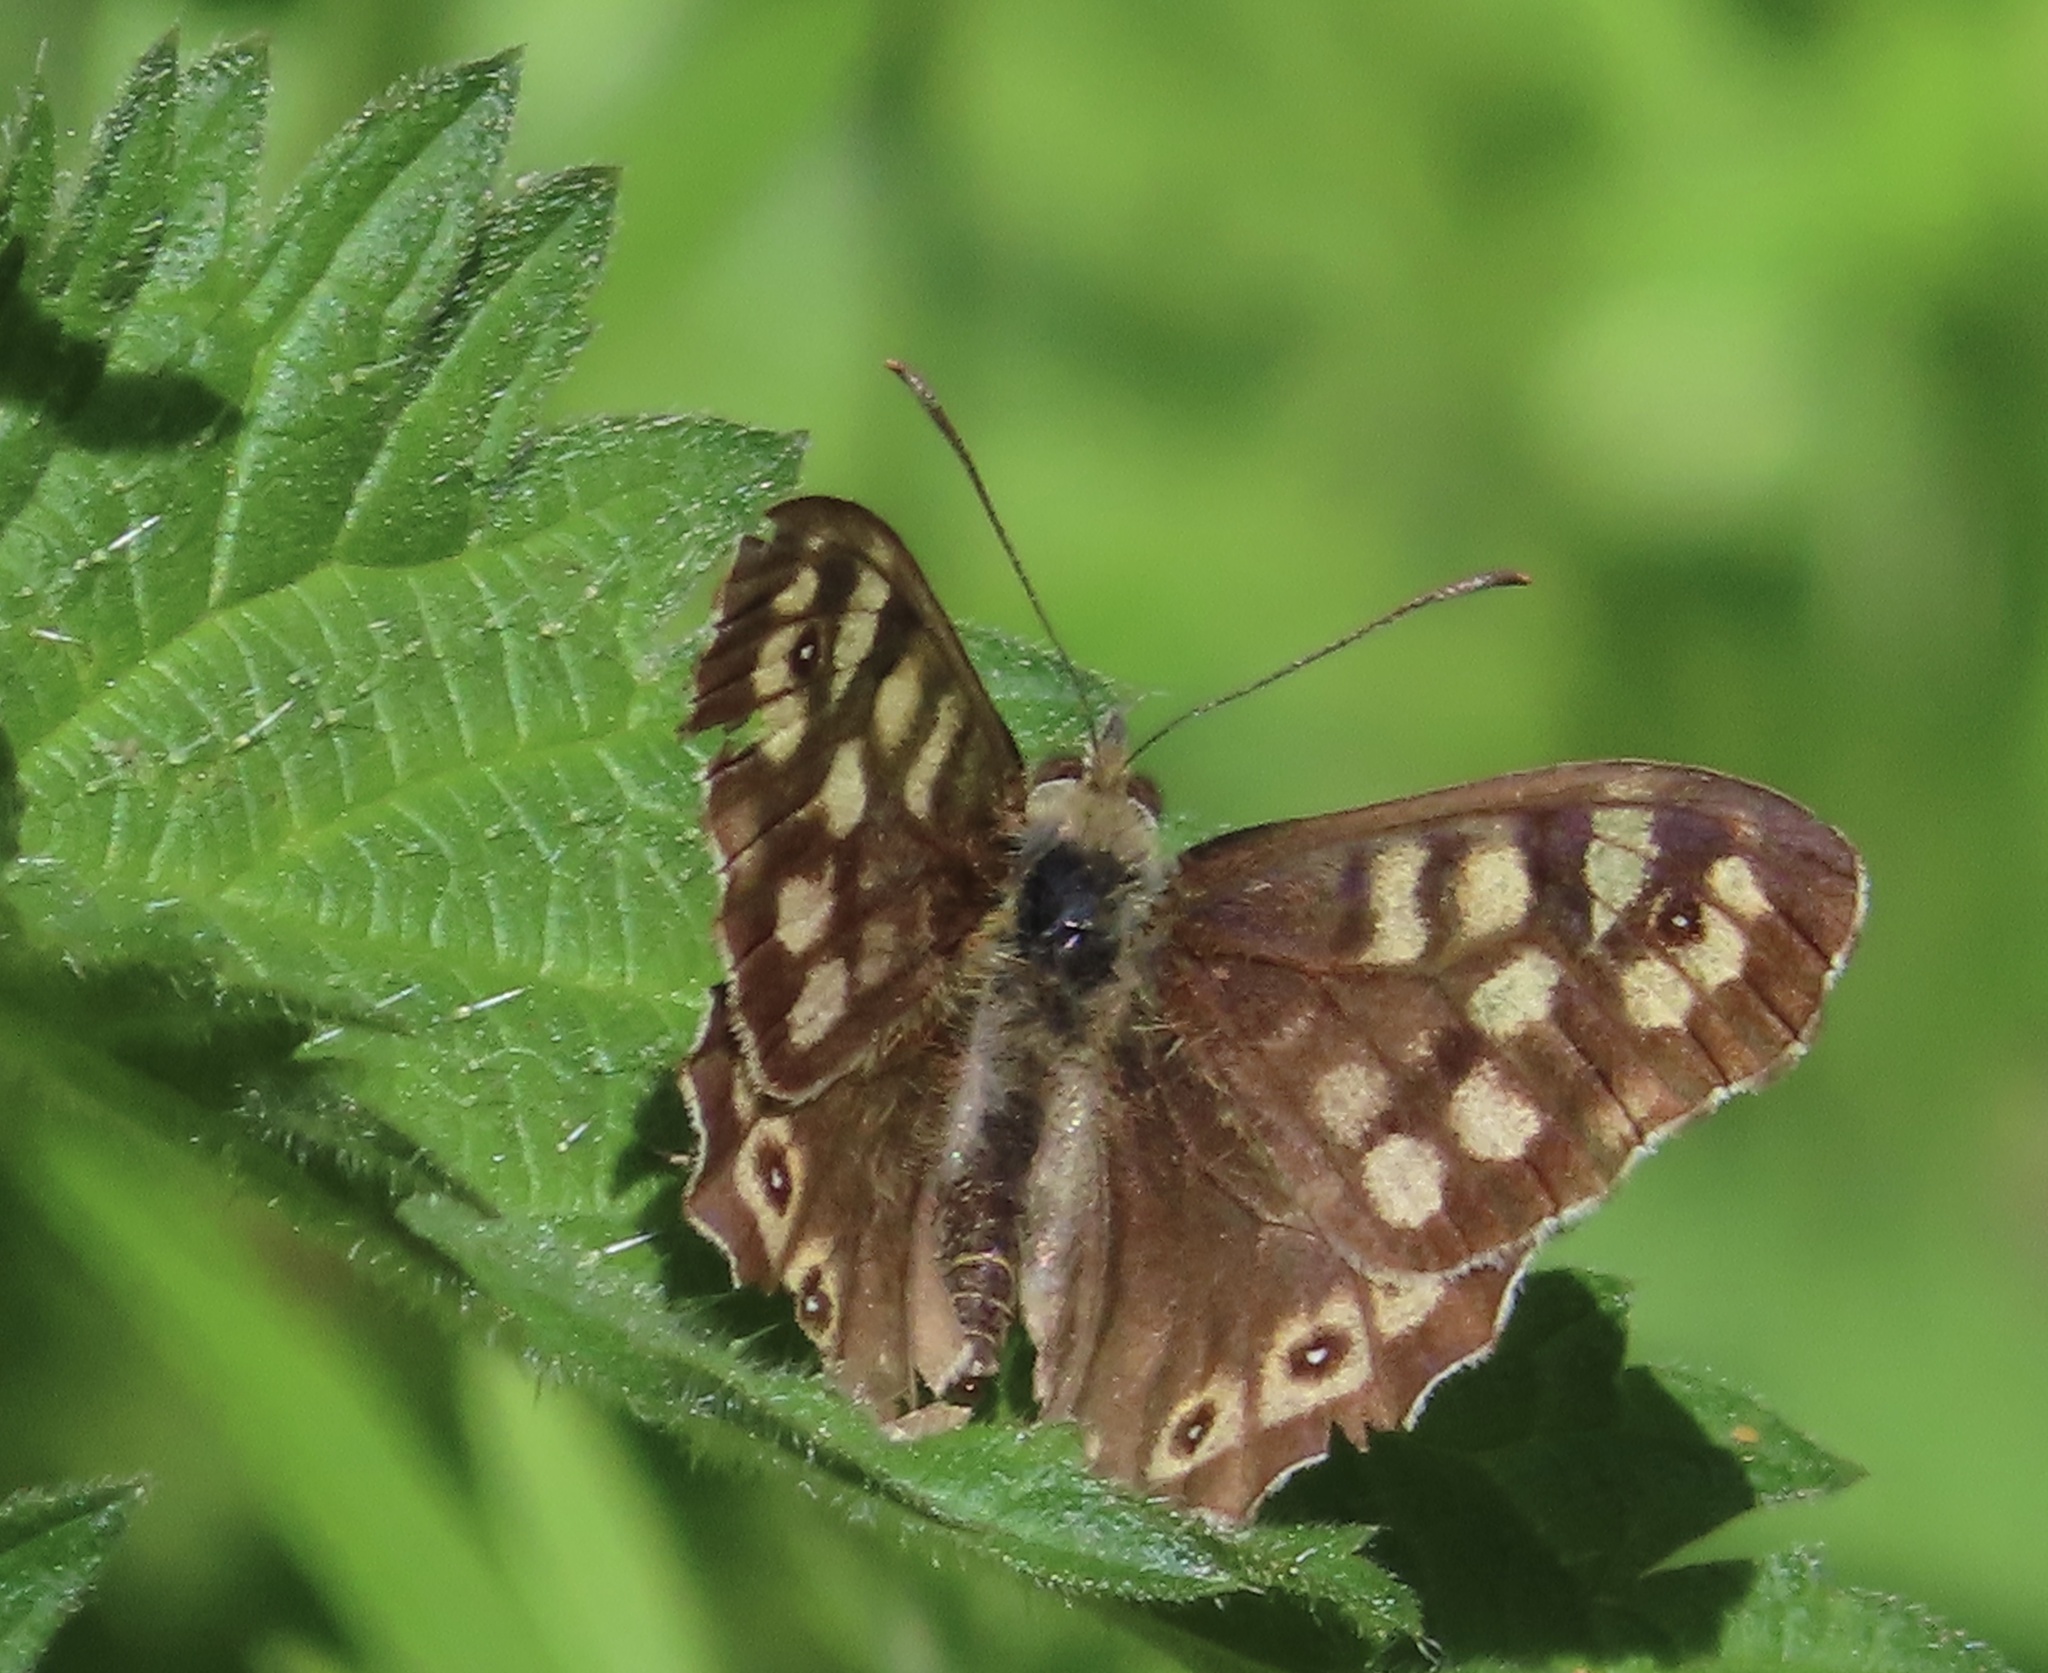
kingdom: Animalia
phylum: Arthropoda
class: Insecta
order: Lepidoptera
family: Nymphalidae
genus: Pararge
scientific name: Pararge aegeria
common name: Speckled wood
